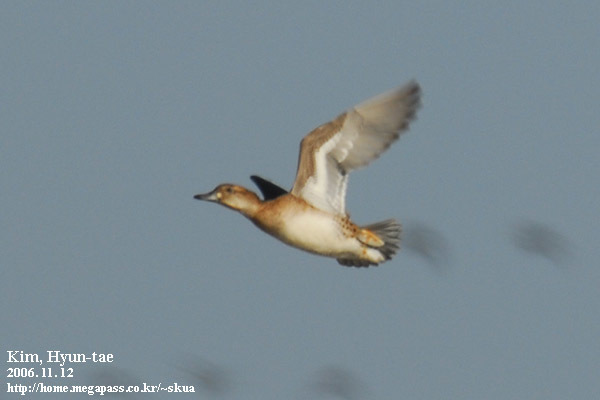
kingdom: Animalia
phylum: Chordata
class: Aves
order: Anseriformes
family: Anatidae
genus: Sibirionetta
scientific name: Sibirionetta formosa
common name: Baikal teal
